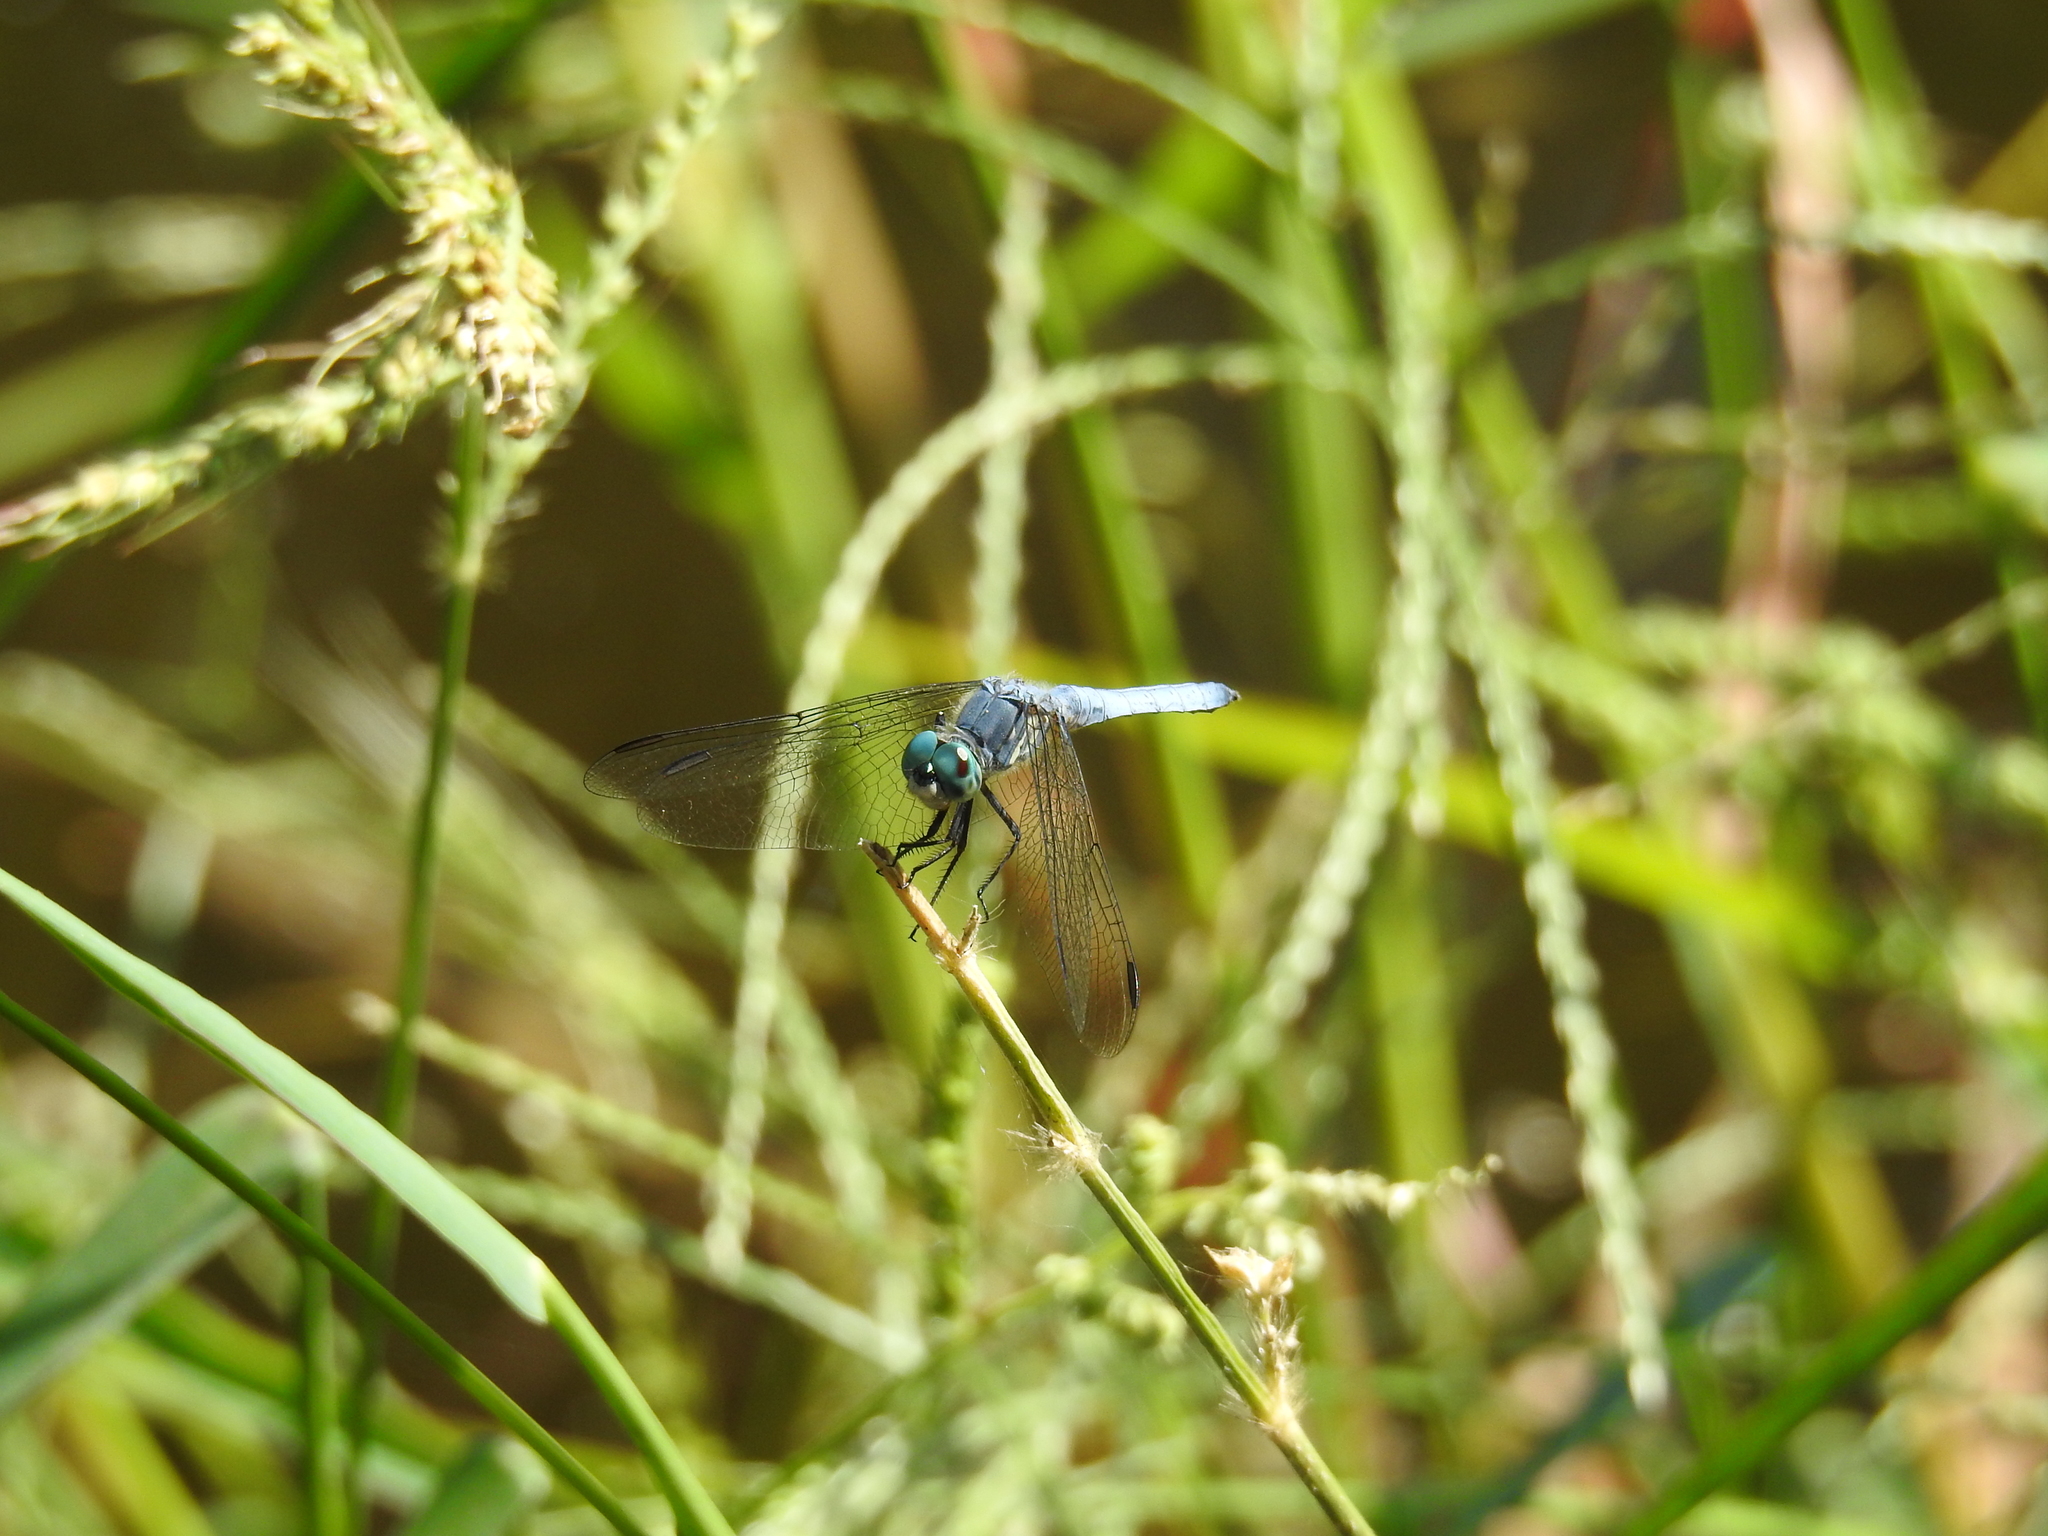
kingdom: Animalia
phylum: Arthropoda
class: Insecta
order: Odonata
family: Libellulidae
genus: Pachydiplax
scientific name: Pachydiplax longipennis
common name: Blue dasher
